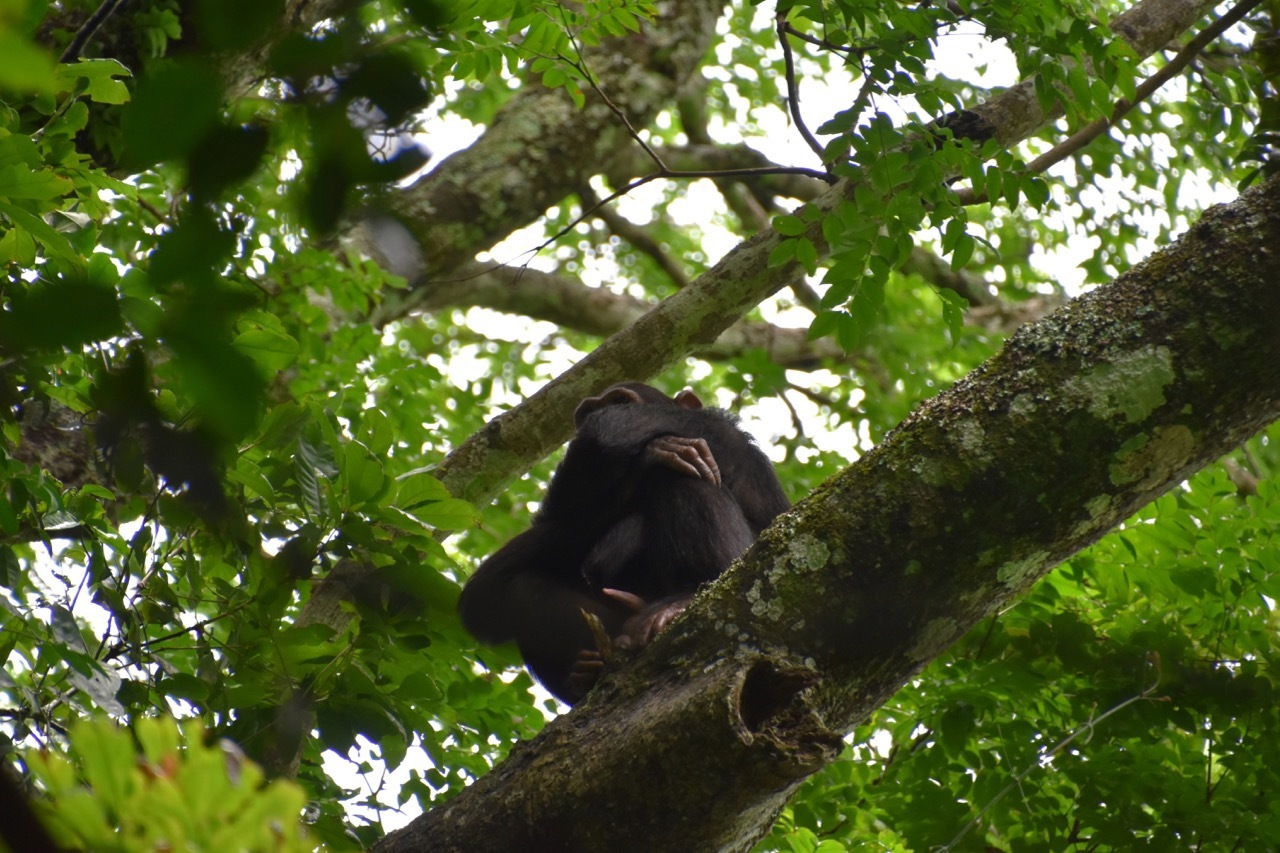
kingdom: Animalia
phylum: Chordata
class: Mammalia
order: Primates
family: Hominidae
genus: Pan
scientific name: Pan troglodytes
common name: Chimpanzee
